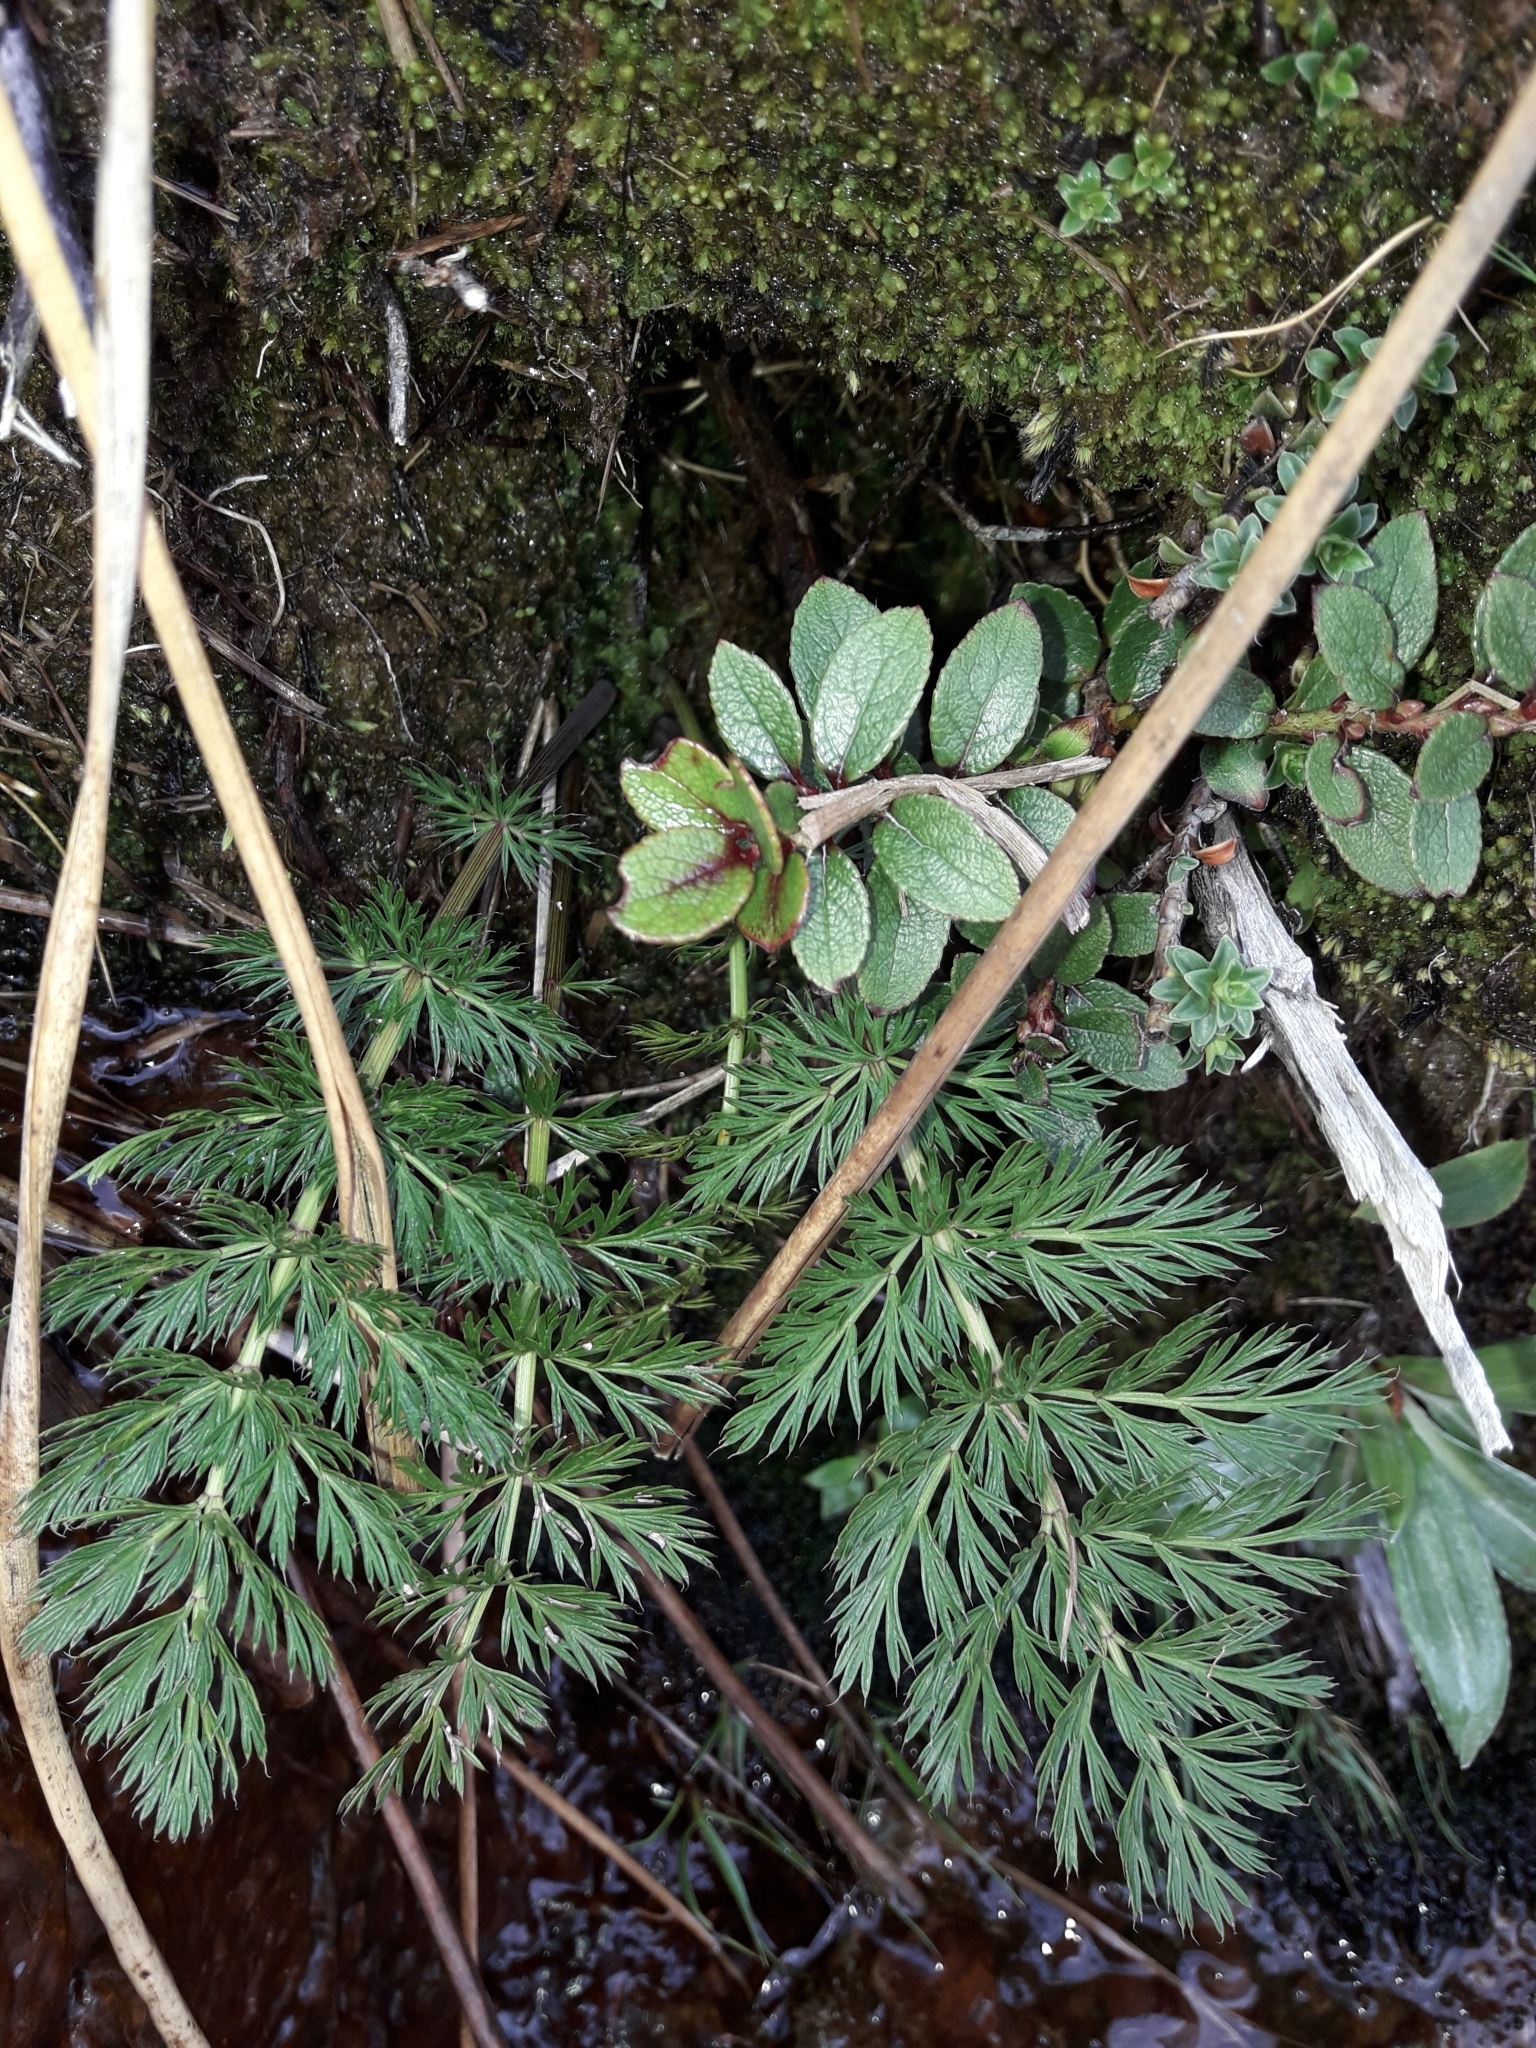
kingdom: Plantae
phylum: Tracheophyta
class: Magnoliopsida
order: Apiales
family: Apiaceae
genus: Anisotome
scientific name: Anisotome haastii
